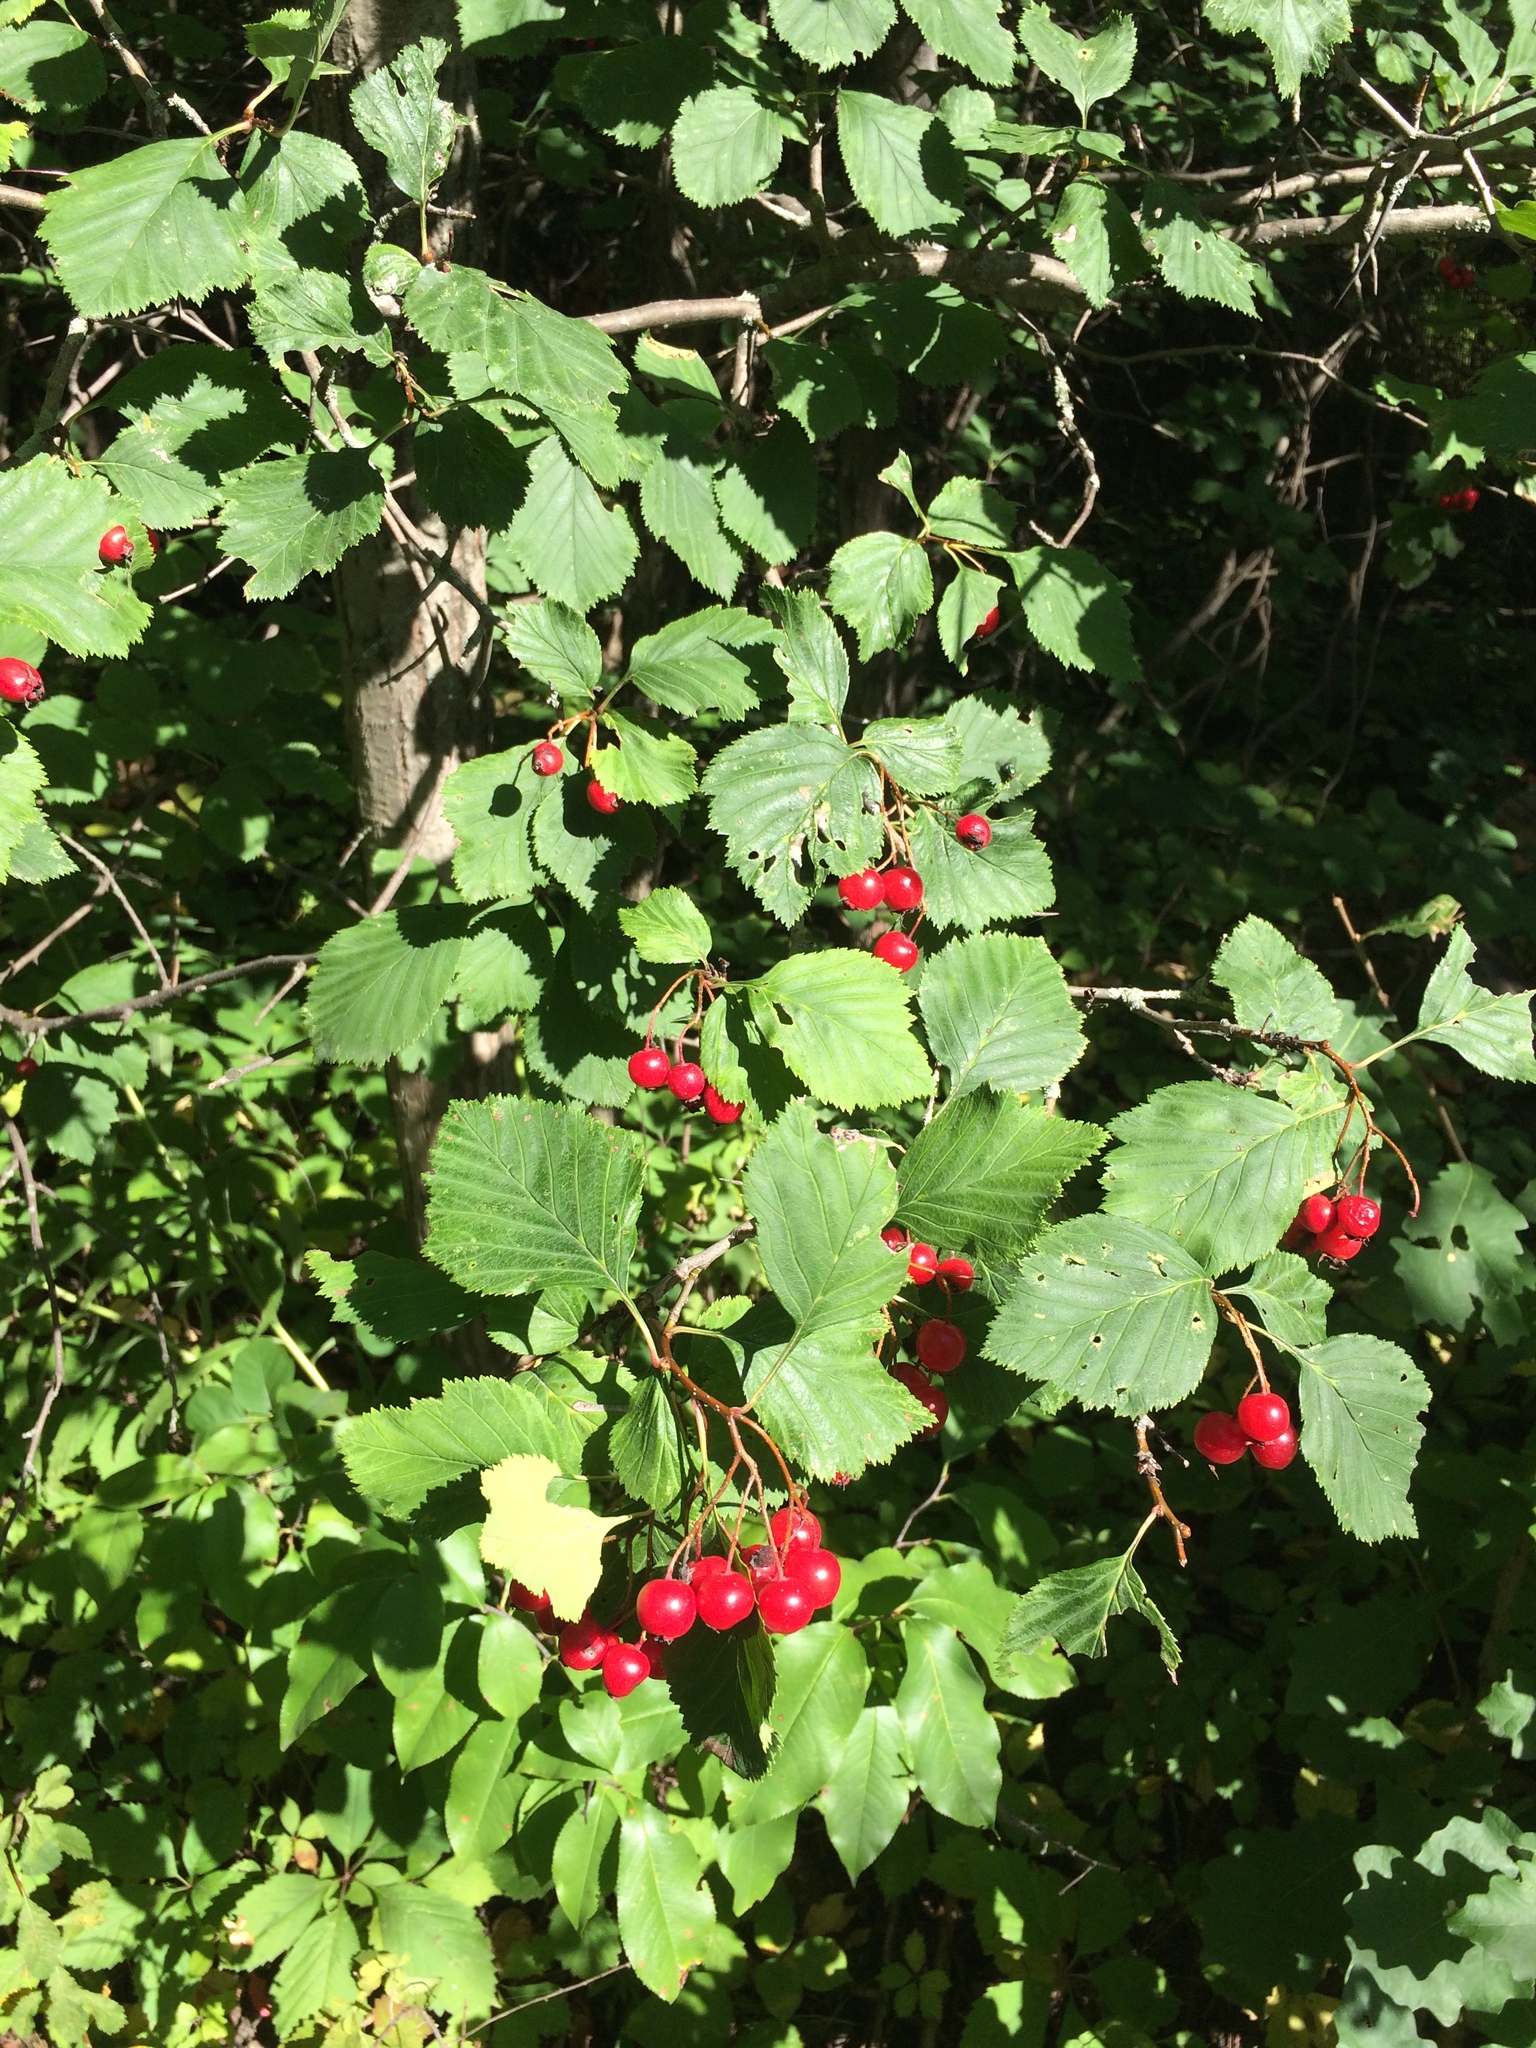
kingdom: Plantae
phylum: Tracheophyta
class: Magnoliopsida
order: Rosales
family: Rosaceae
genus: Crataegus
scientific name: Crataegus macracantha
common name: Large-thorn hawthorn
